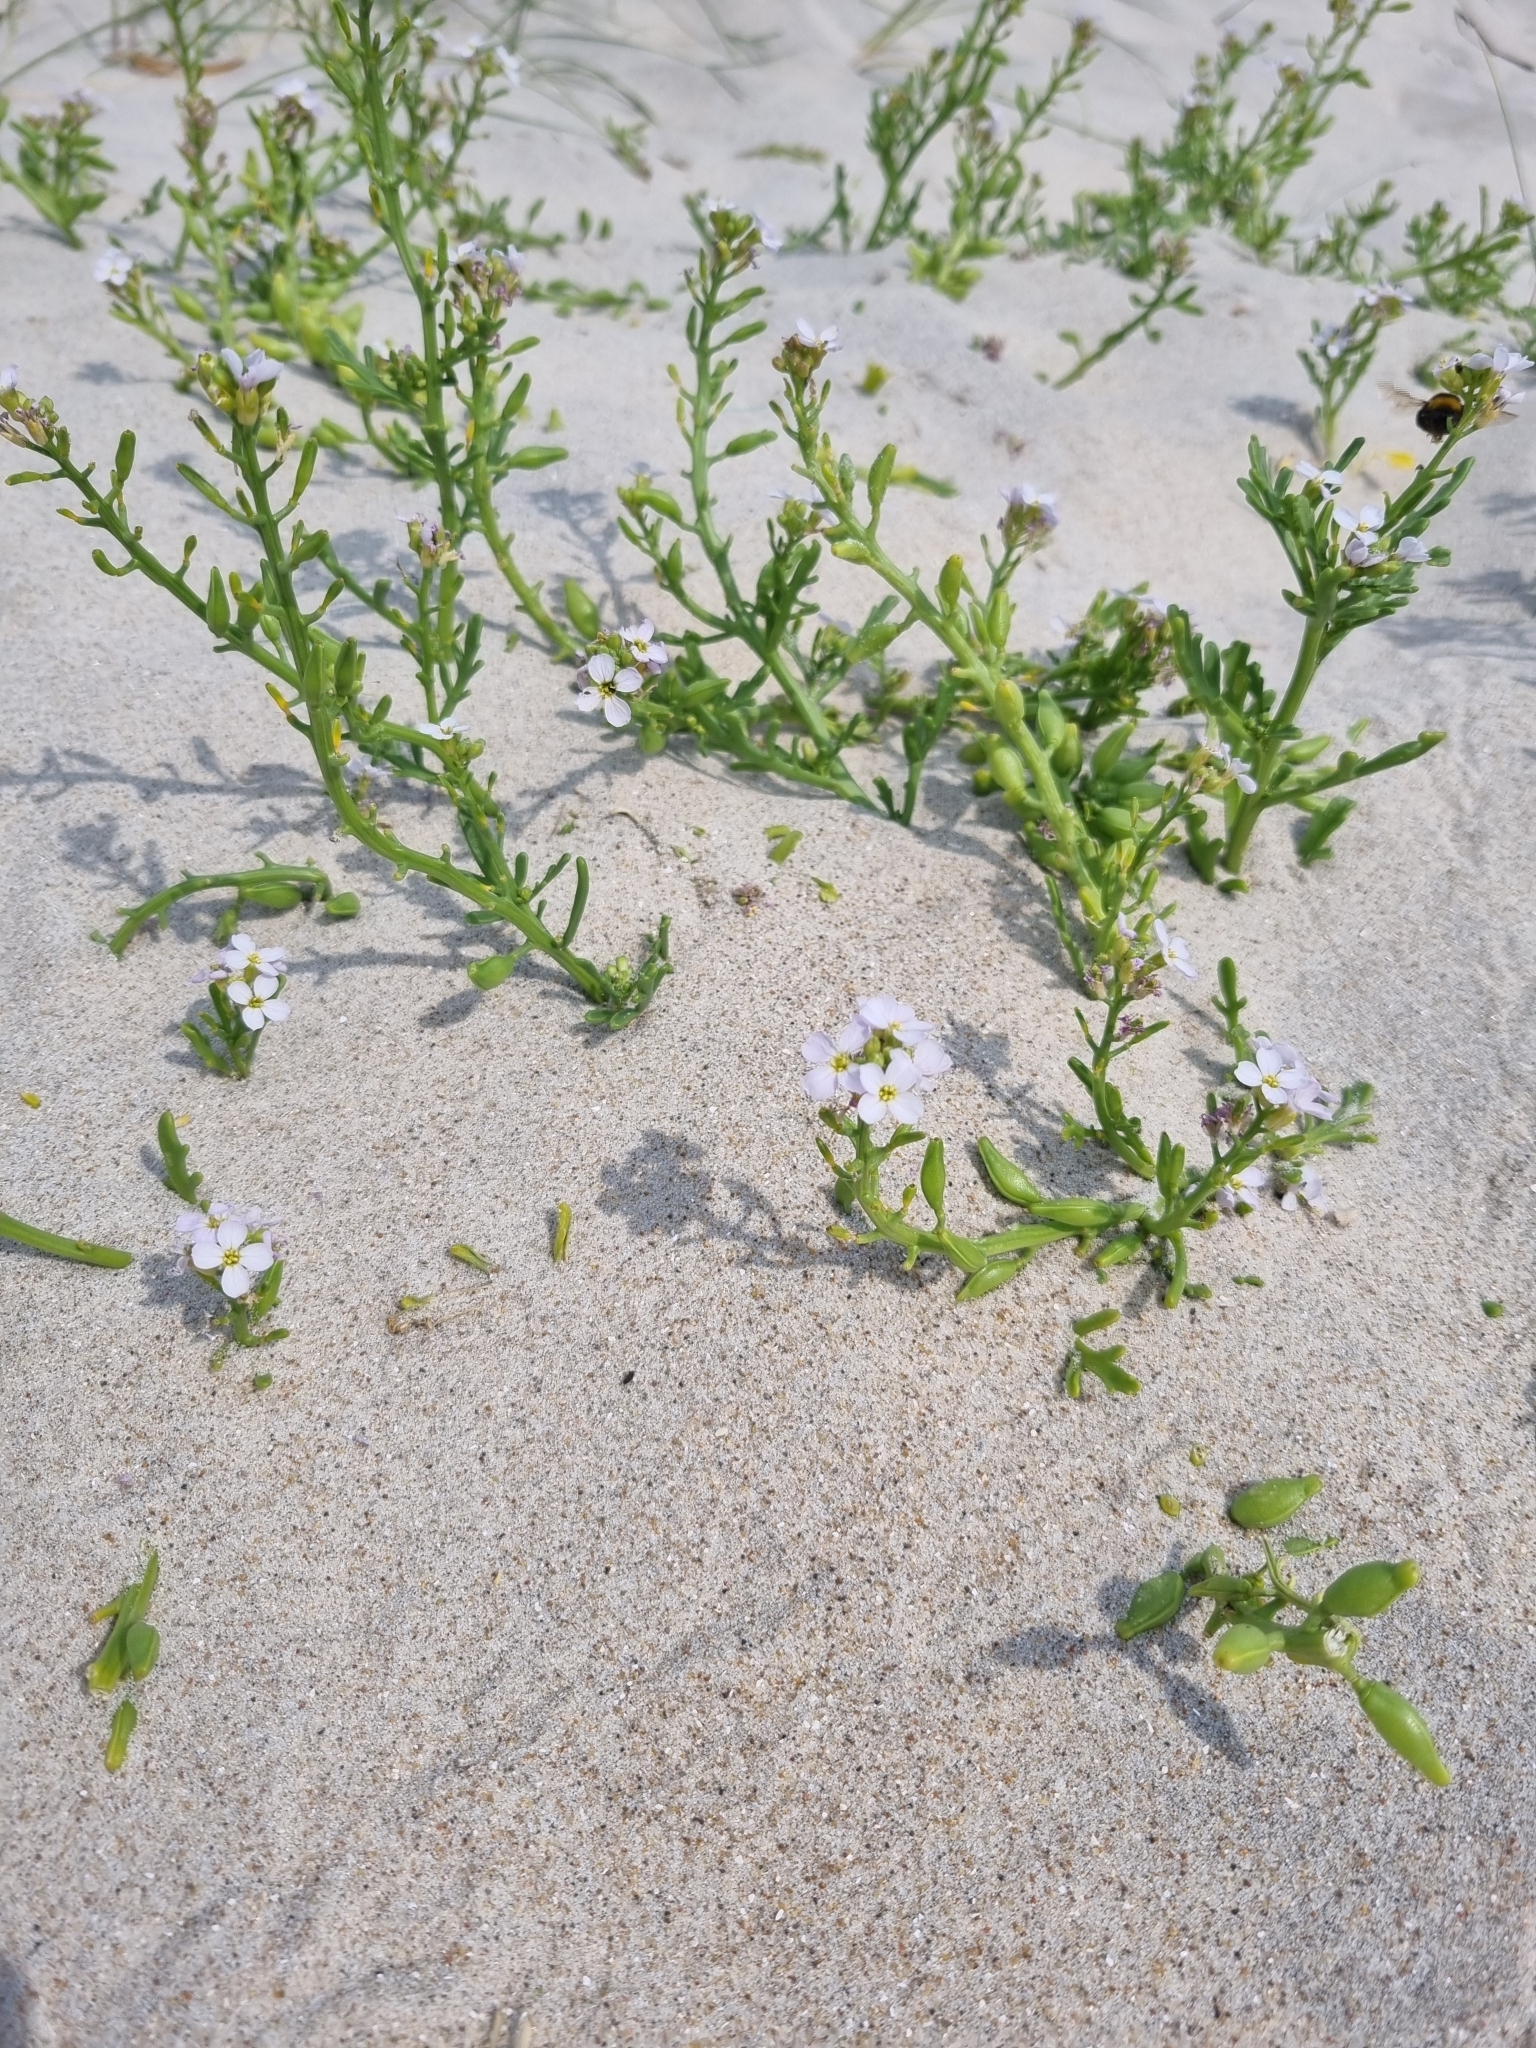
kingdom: Plantae
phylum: Tracheophyta
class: Magnoliopsida
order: Brassicales
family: Brassicaceae
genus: Cakile
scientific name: Cakile maritima
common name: Sea rocket
